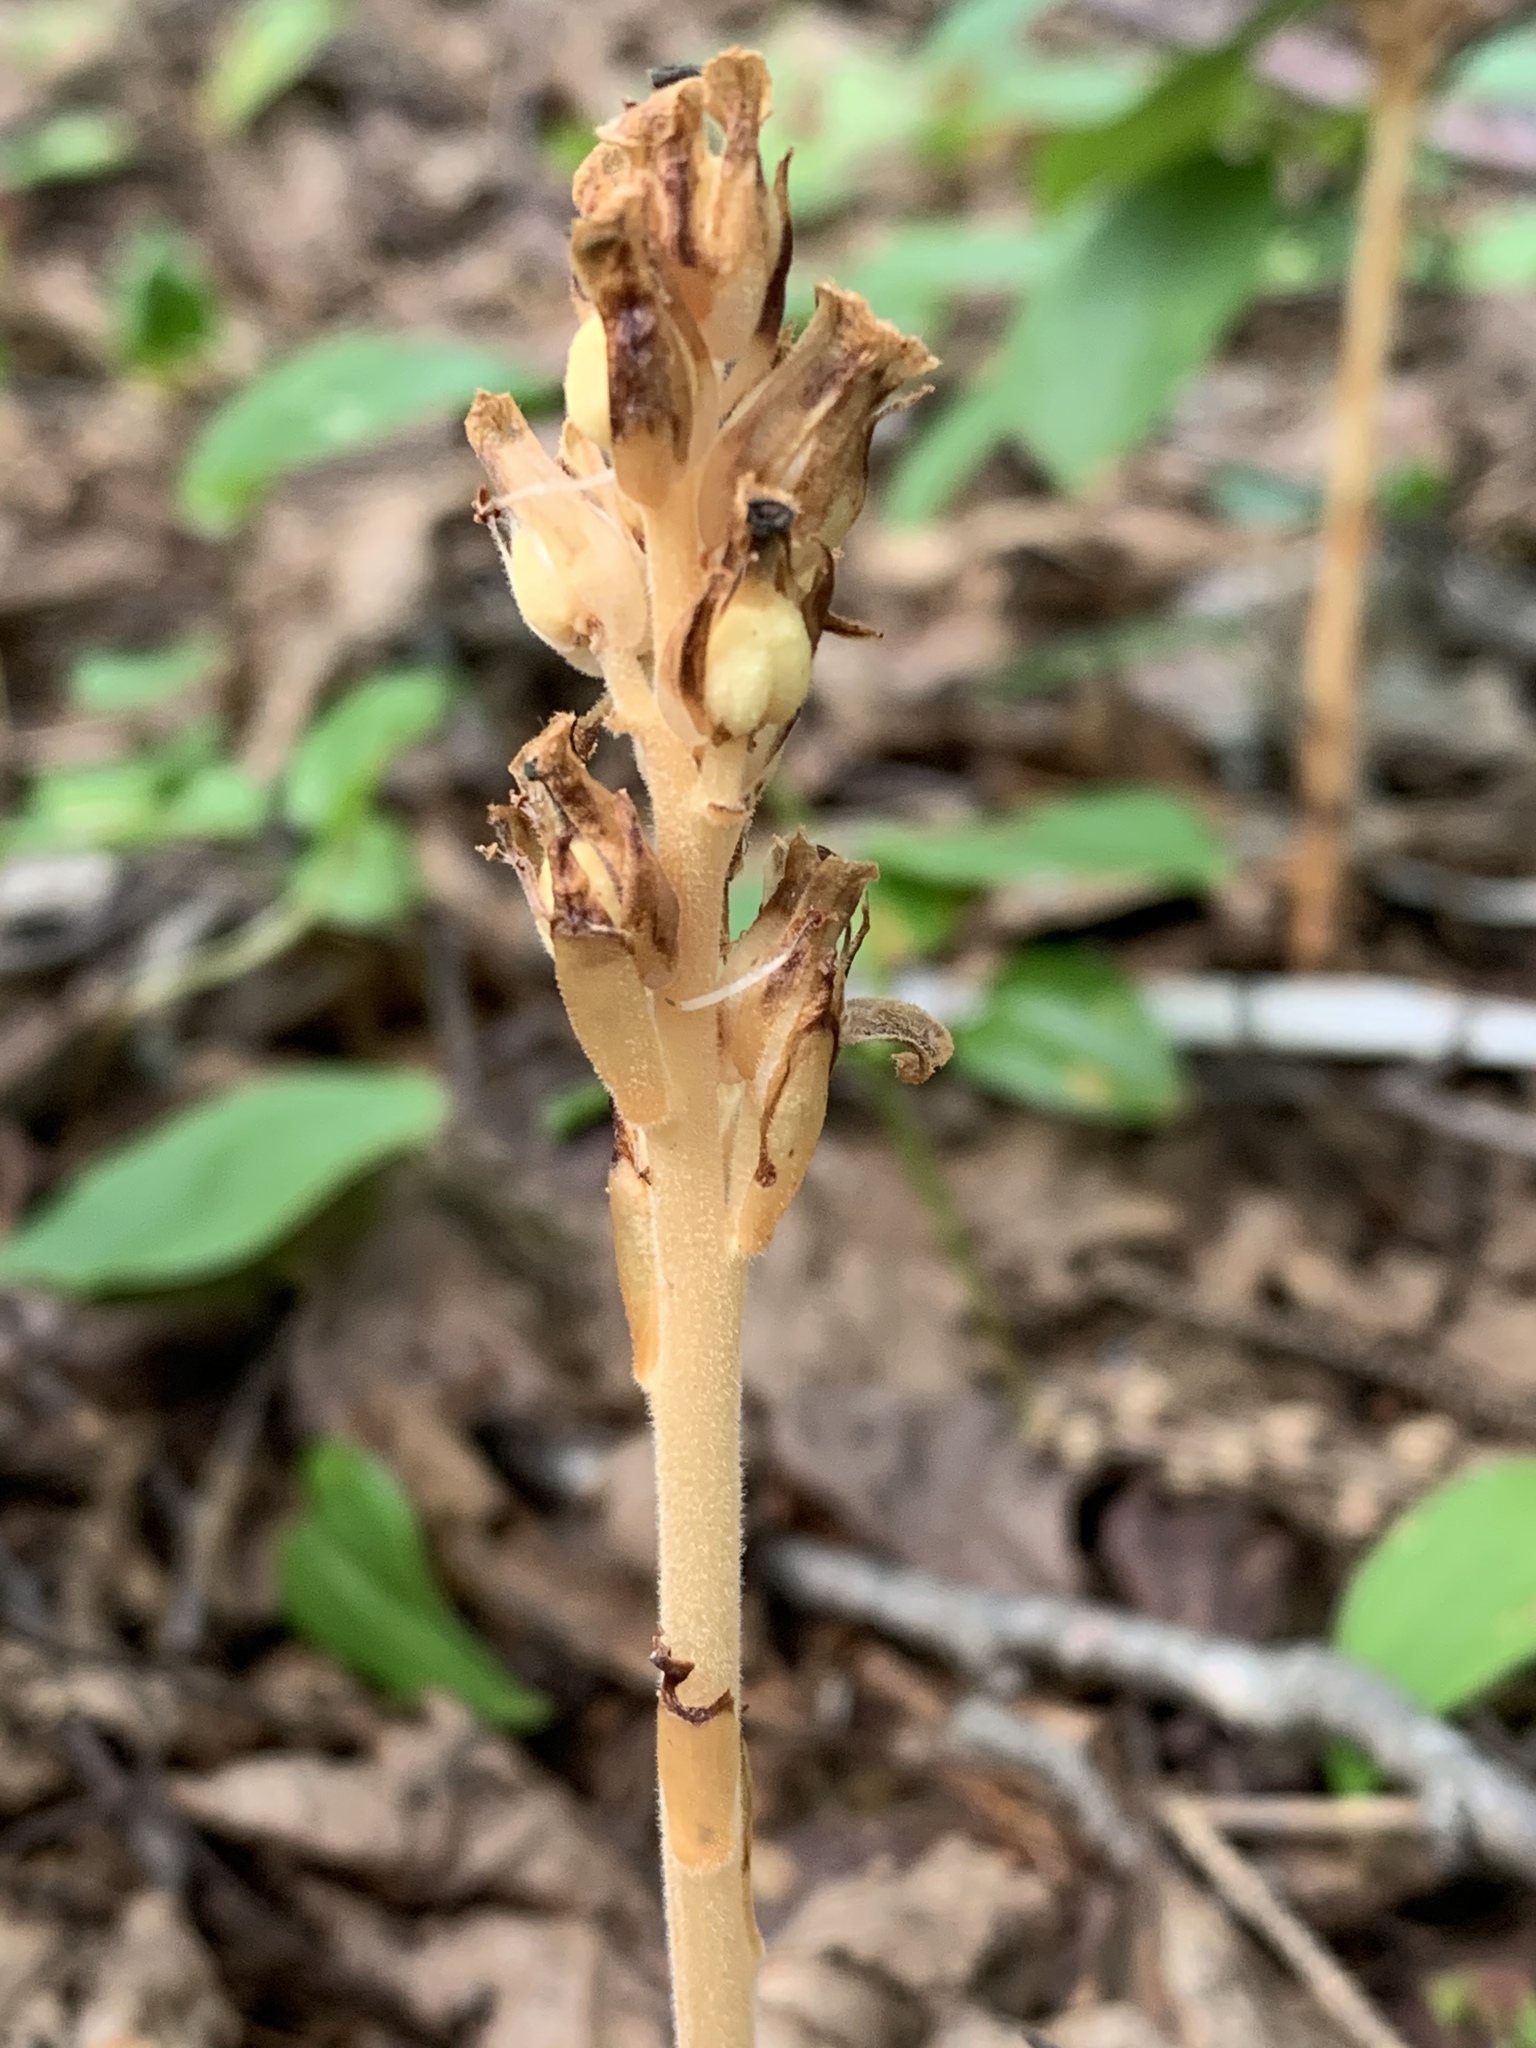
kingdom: Plantae
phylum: Tracheophyta
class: Magnoliopsida
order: Ericales
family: Ericaceae
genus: Hypopitys
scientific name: Hypopitys monotropa
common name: Yellow bird's-nest
